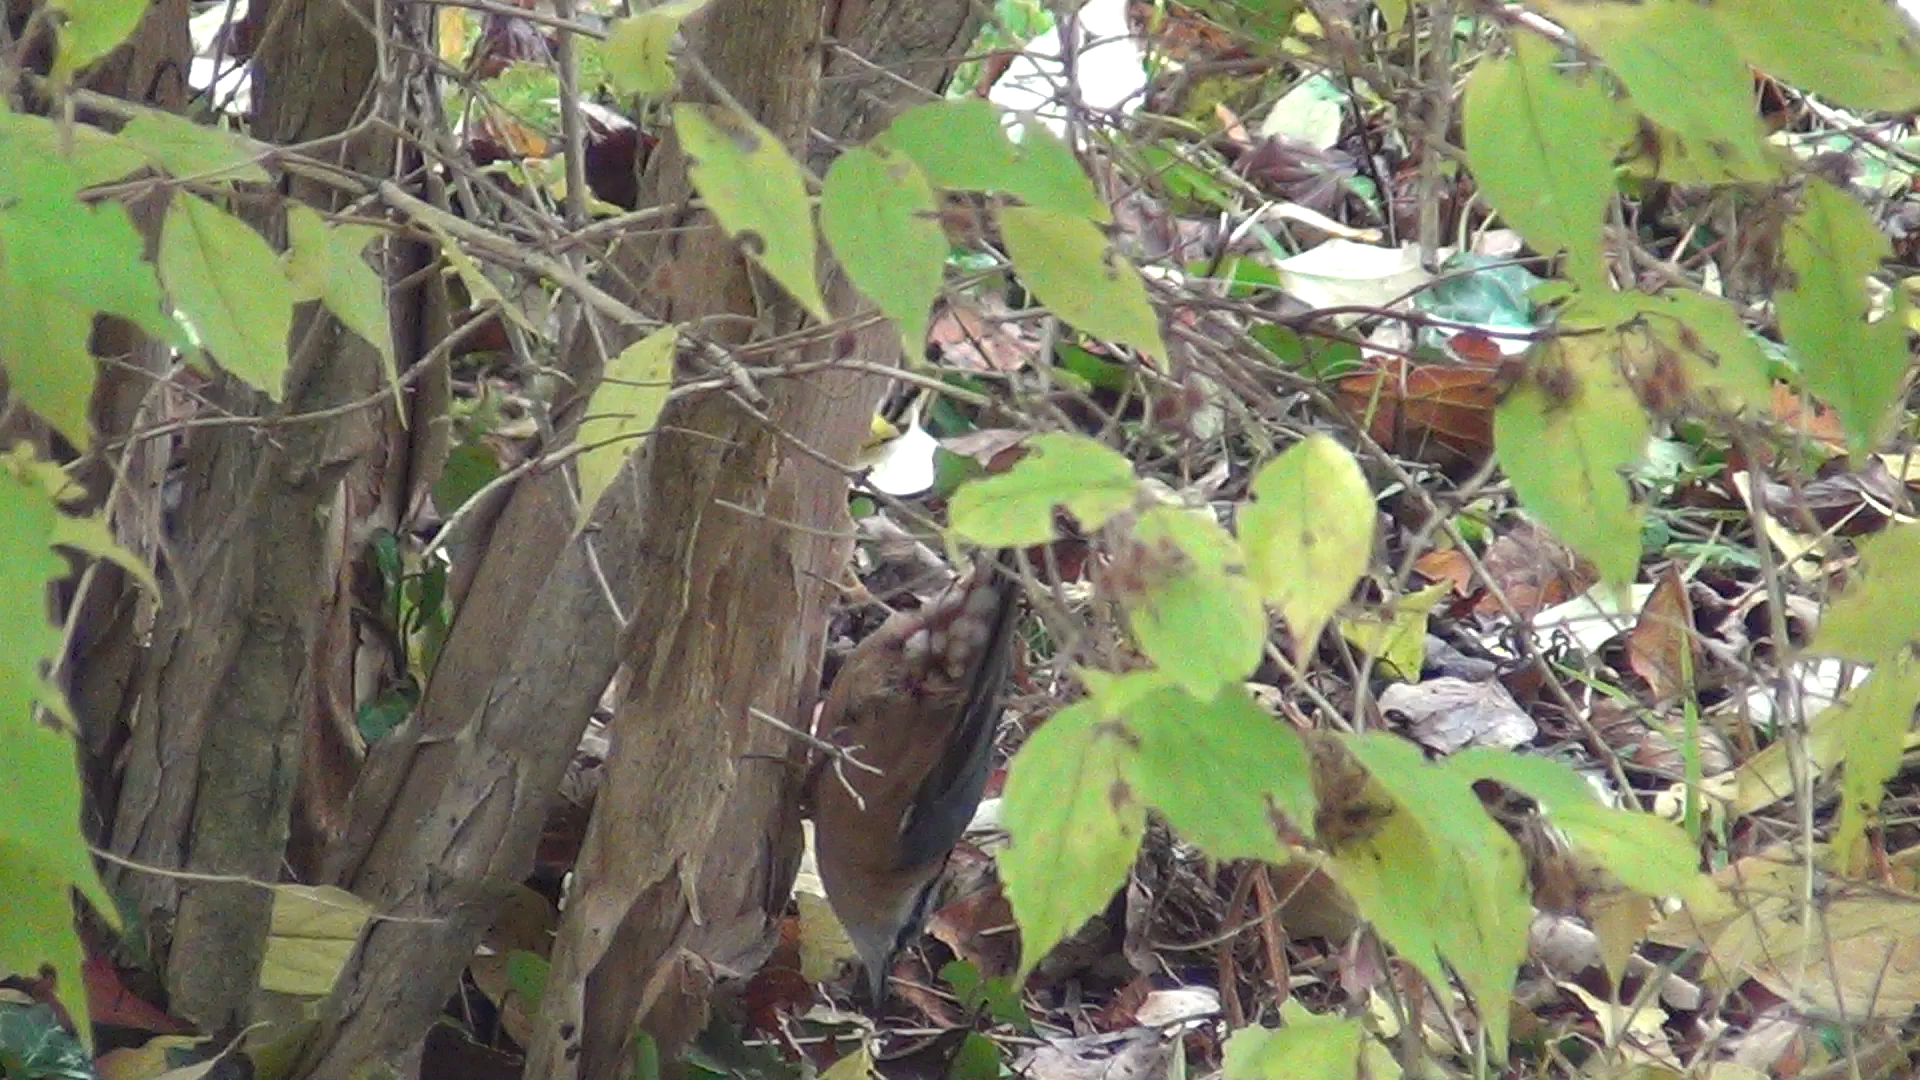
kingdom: Animalia
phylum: Chordata
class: Aves
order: Passeriformes
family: Sittidae
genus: Sitta
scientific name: Sitta europaea
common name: Eurasian nuthatch
